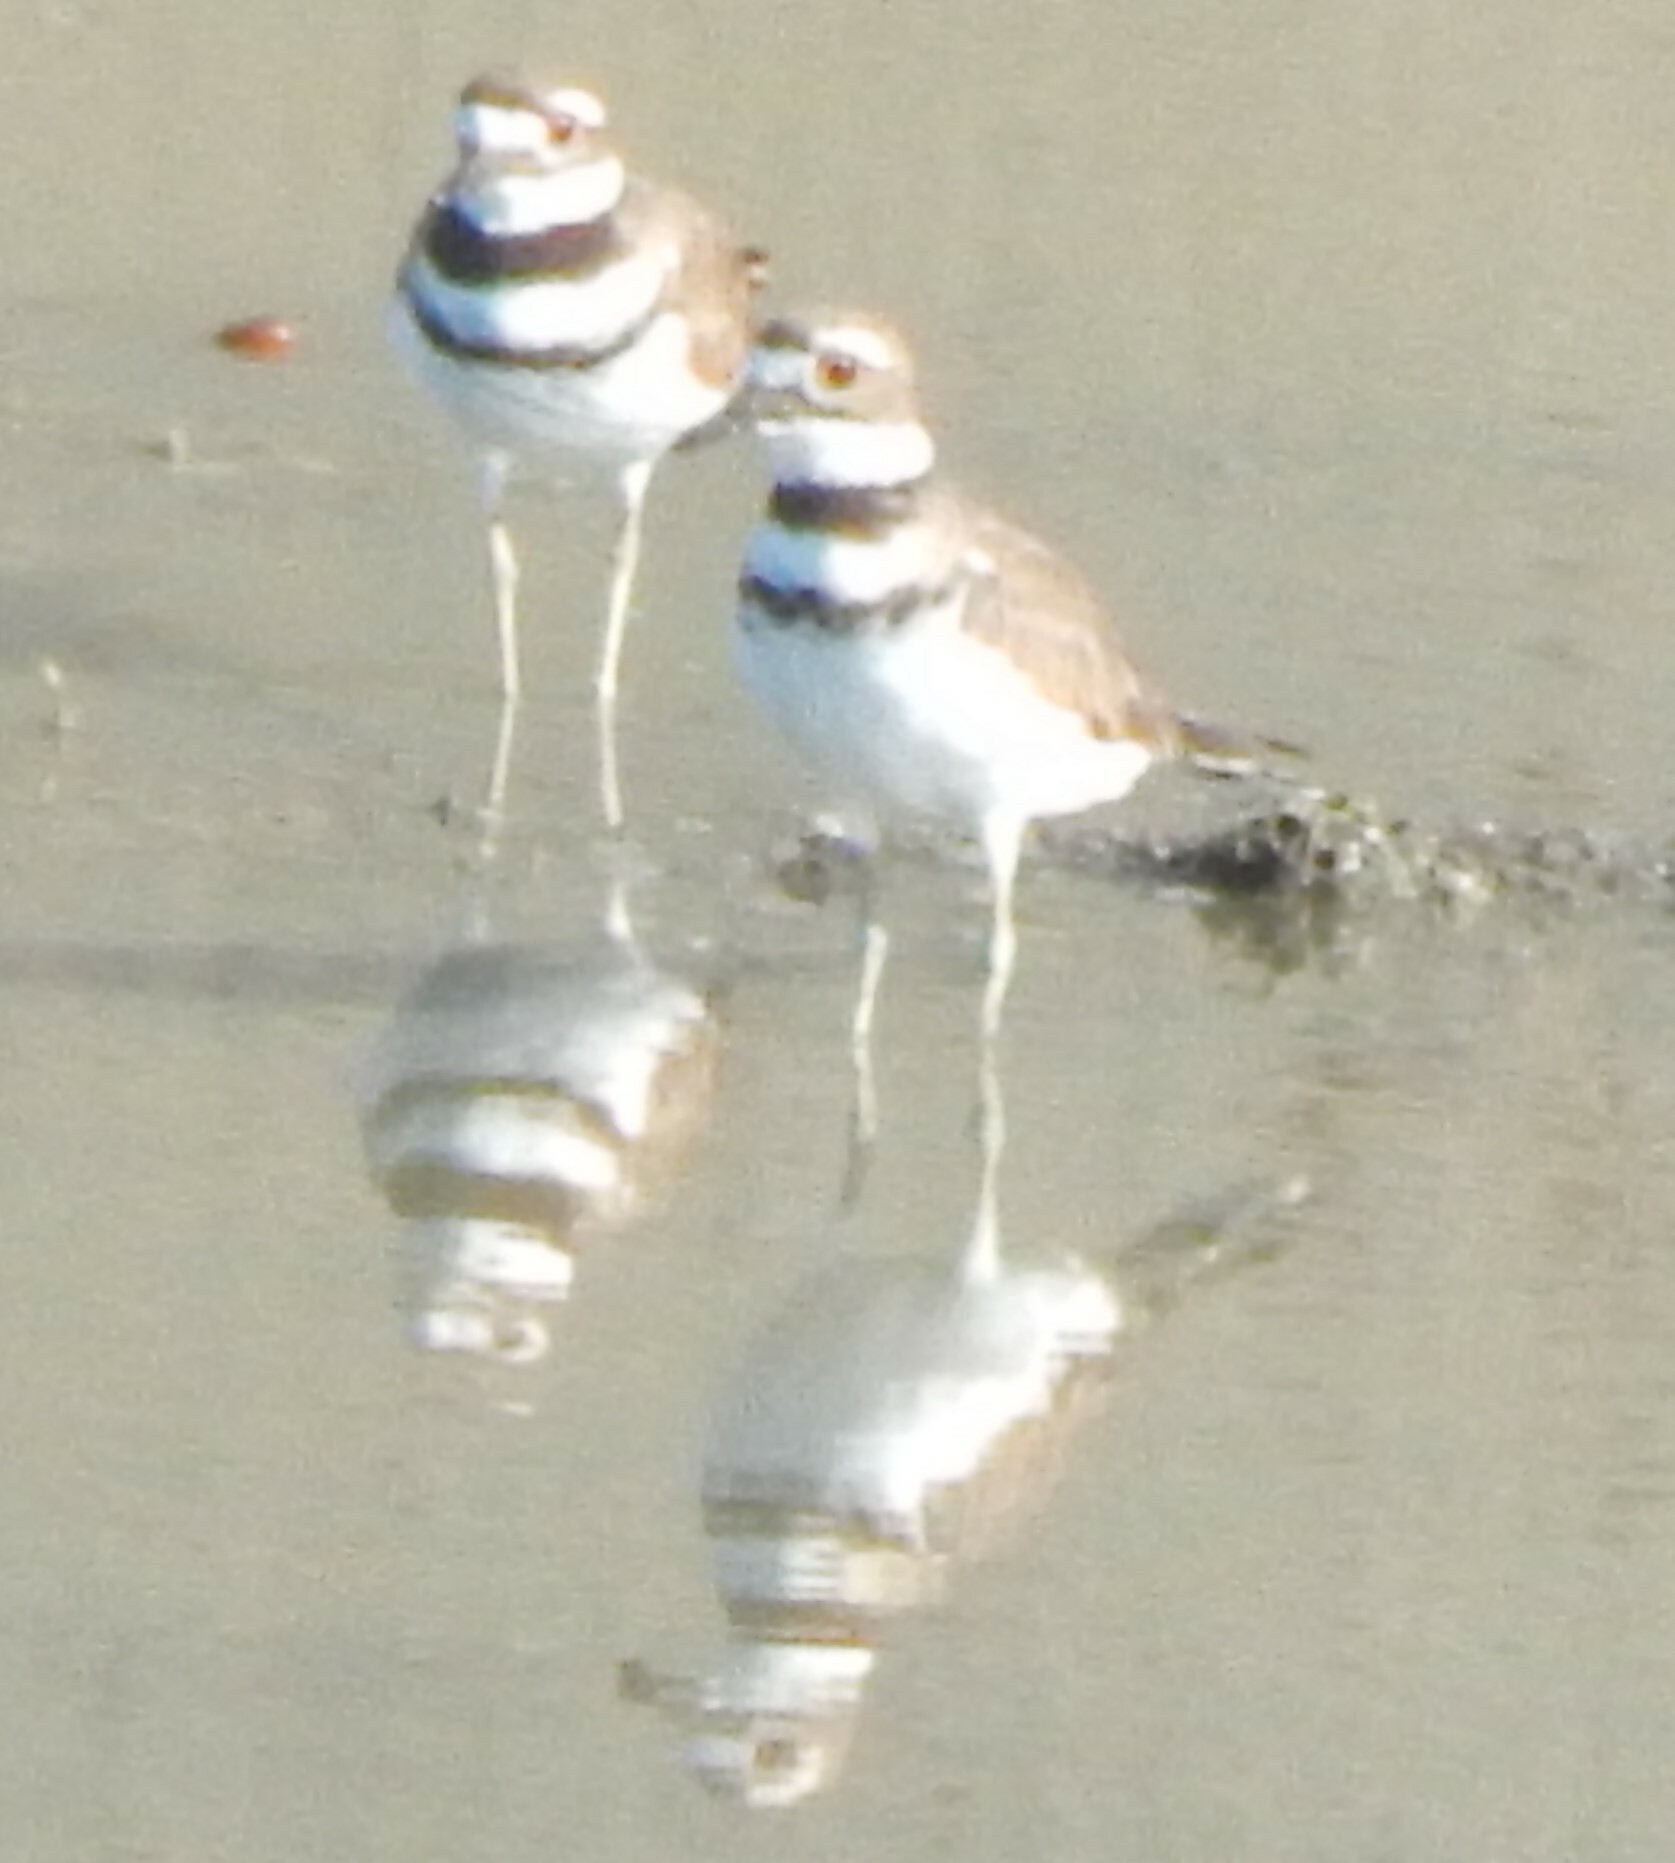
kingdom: Animalia
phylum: Chordata
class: Aves
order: Charadriiformes
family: Charadriidae
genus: Charadrius
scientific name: Charadrius vociferus
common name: Killdeer
